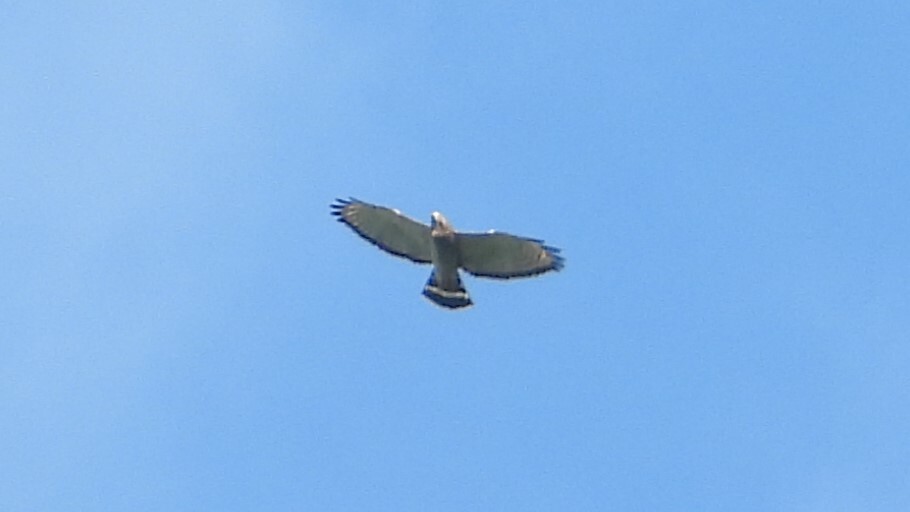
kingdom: Animalia
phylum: Chordata
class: Aves
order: Accipitriformes
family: Accipitridae
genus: Buteo
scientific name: Buteo platypterus
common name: Broad-winged hawk
